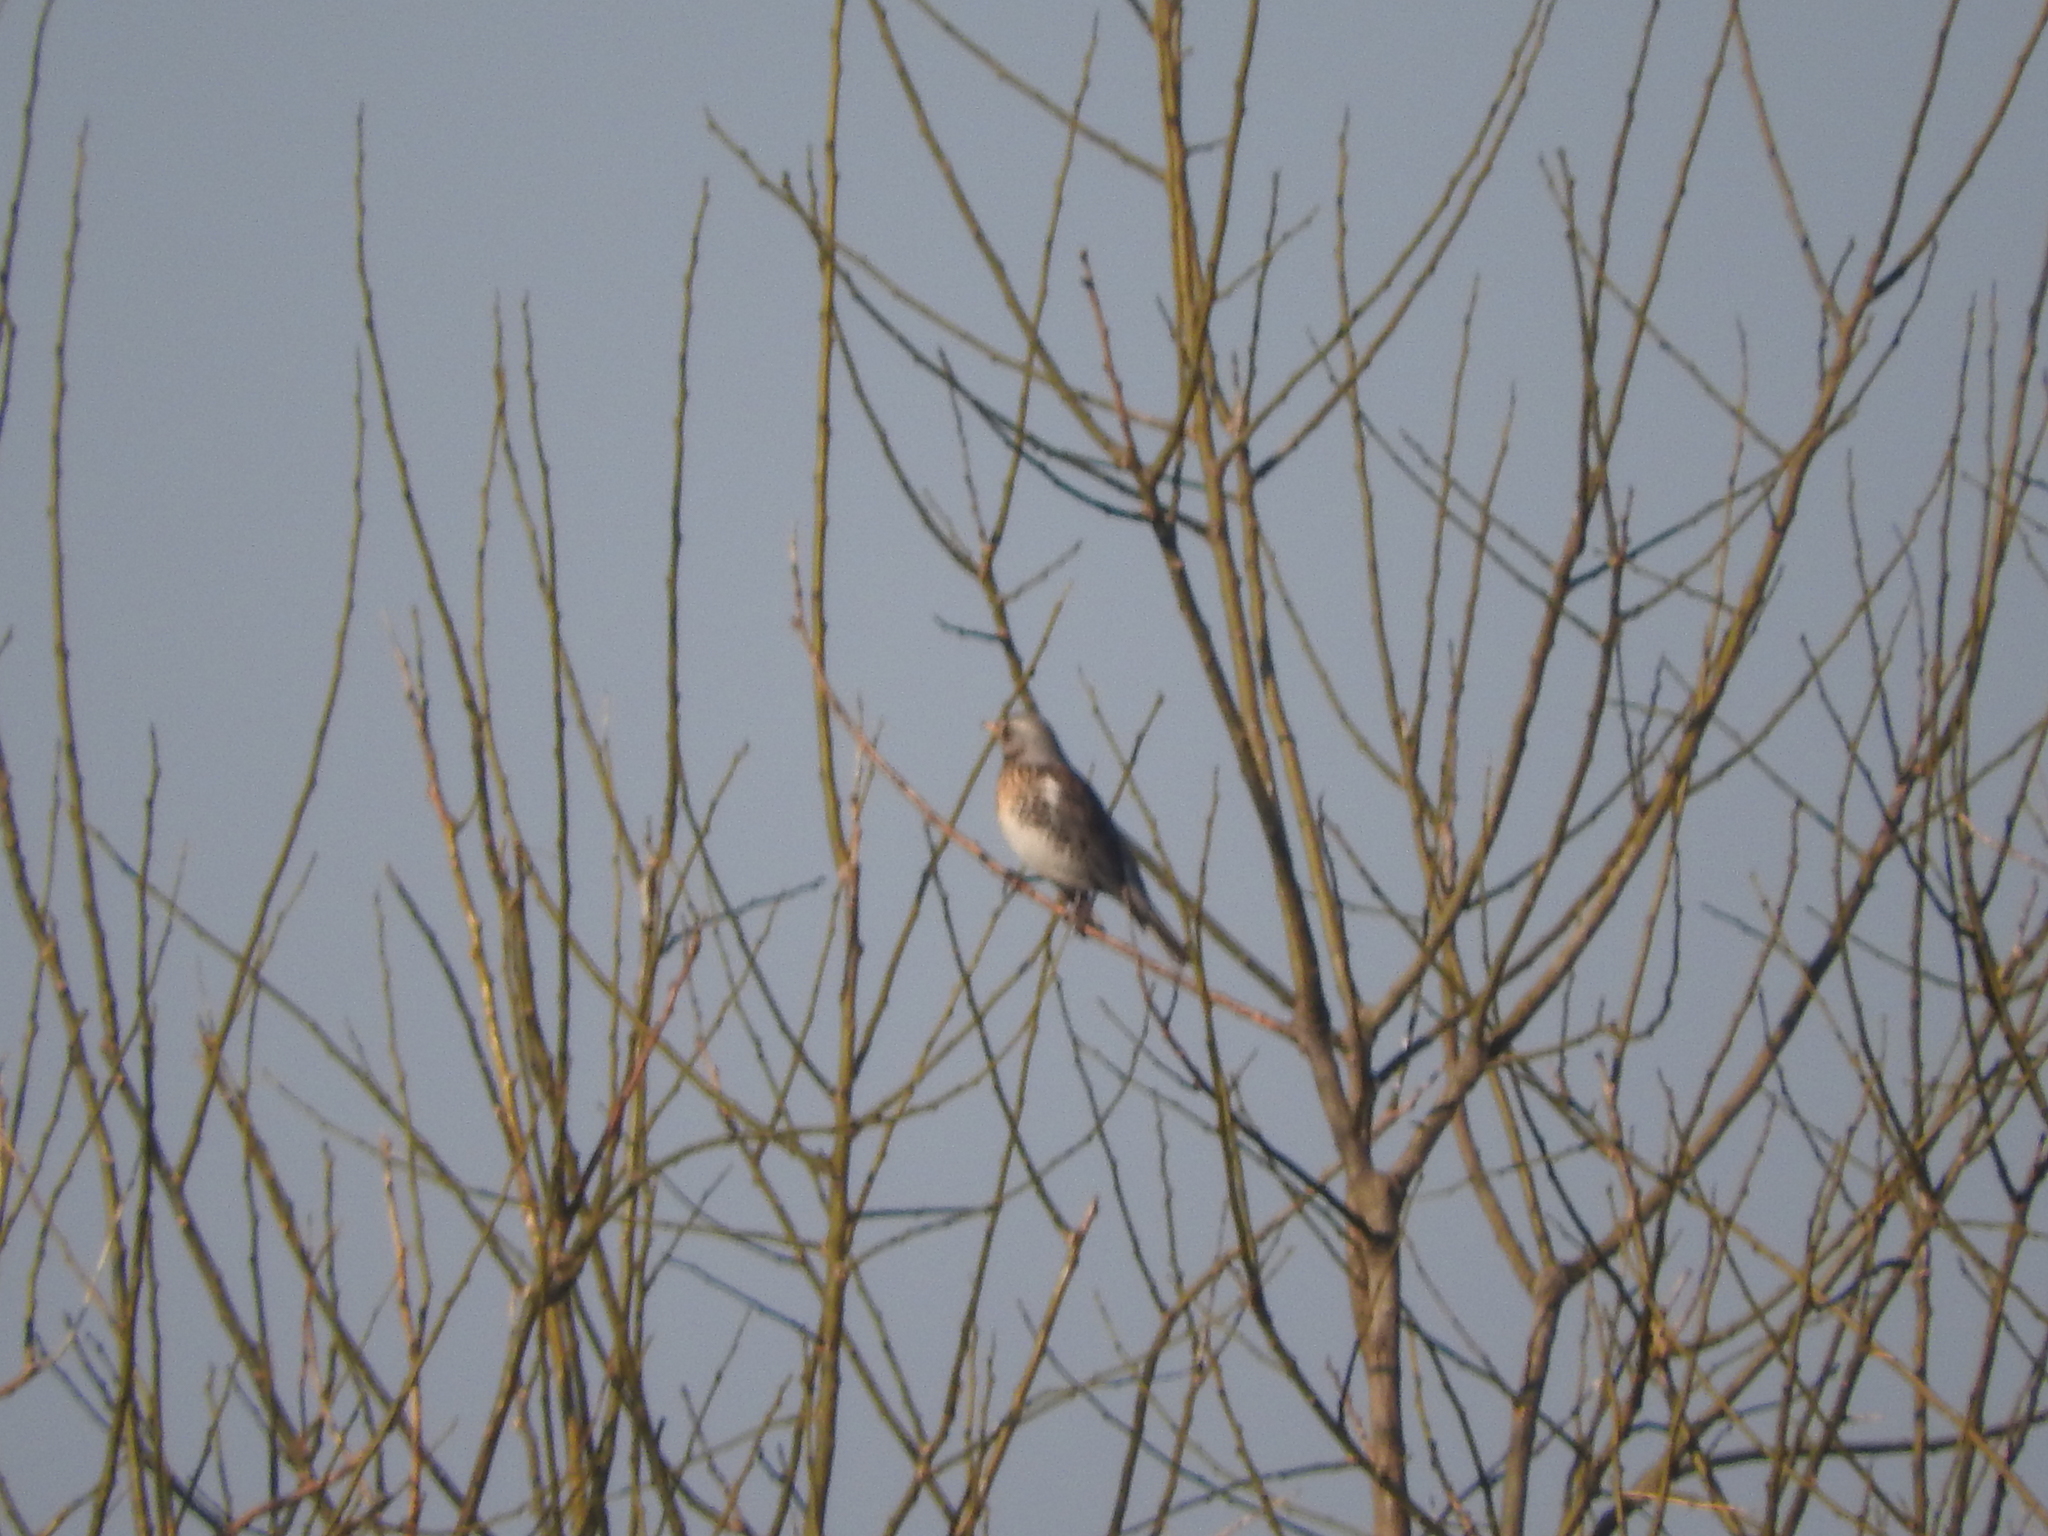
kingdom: Animalia
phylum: Chordata
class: Aves
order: Passeriformes
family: Turdidae
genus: Turdus
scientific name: Turdus pilaris
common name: Fieldfare
